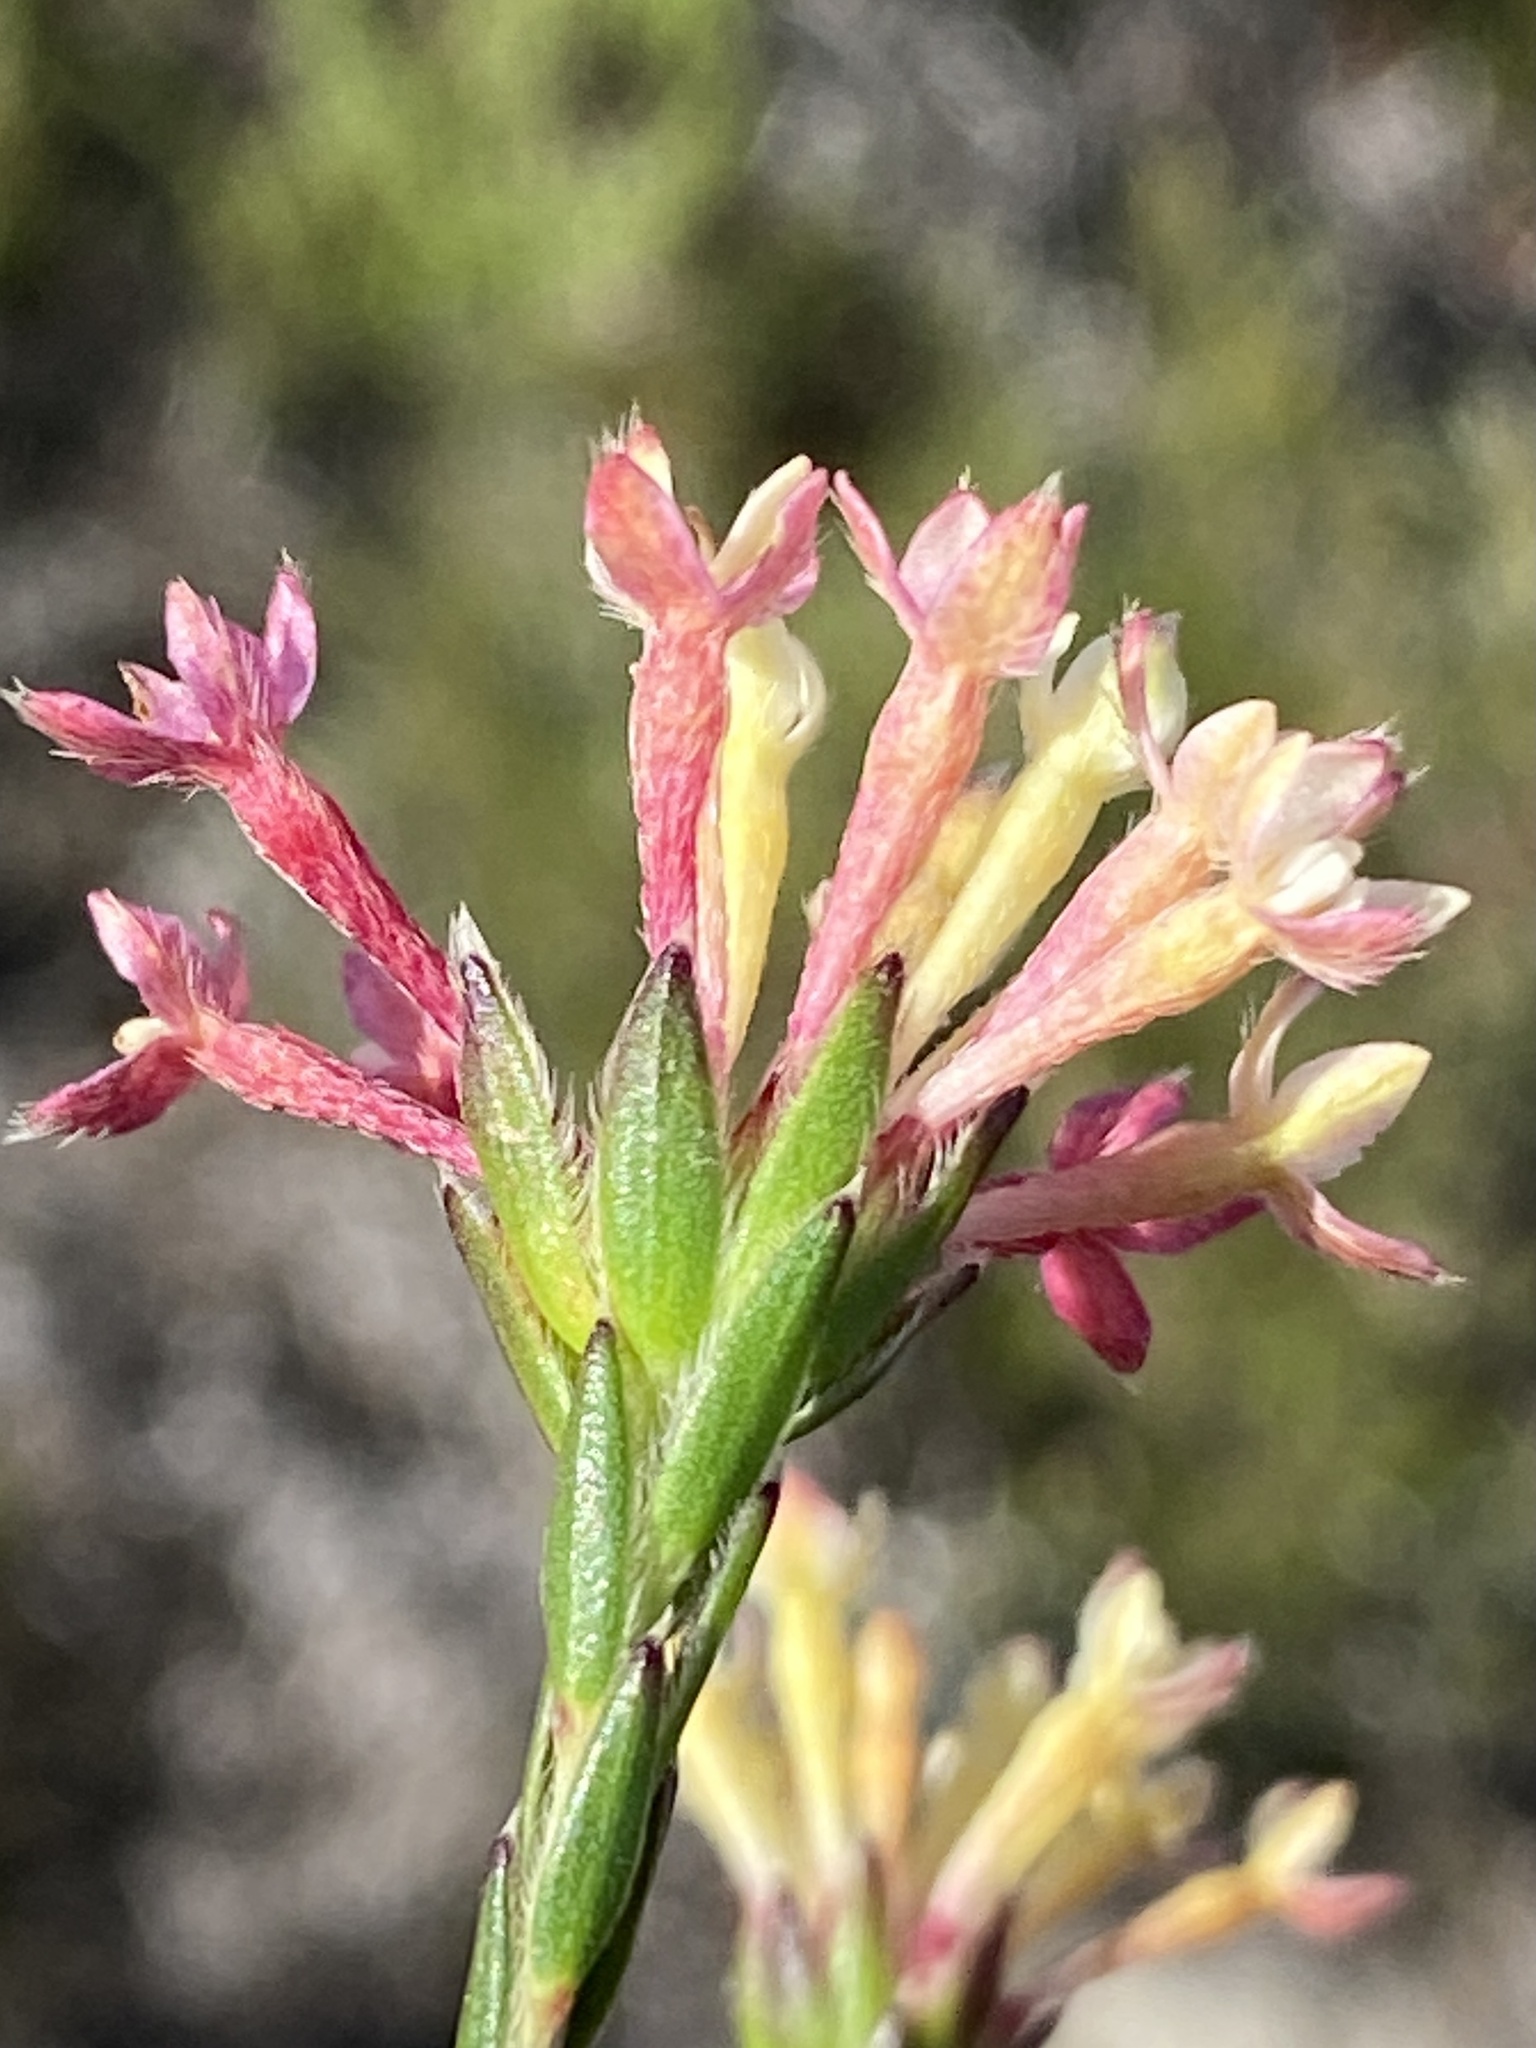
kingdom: Plantae
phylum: Tracheophyta
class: Magnoliopsida
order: Malvales
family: Thymelaeaceae
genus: Gnidia
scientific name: Gnidia squarrosa
